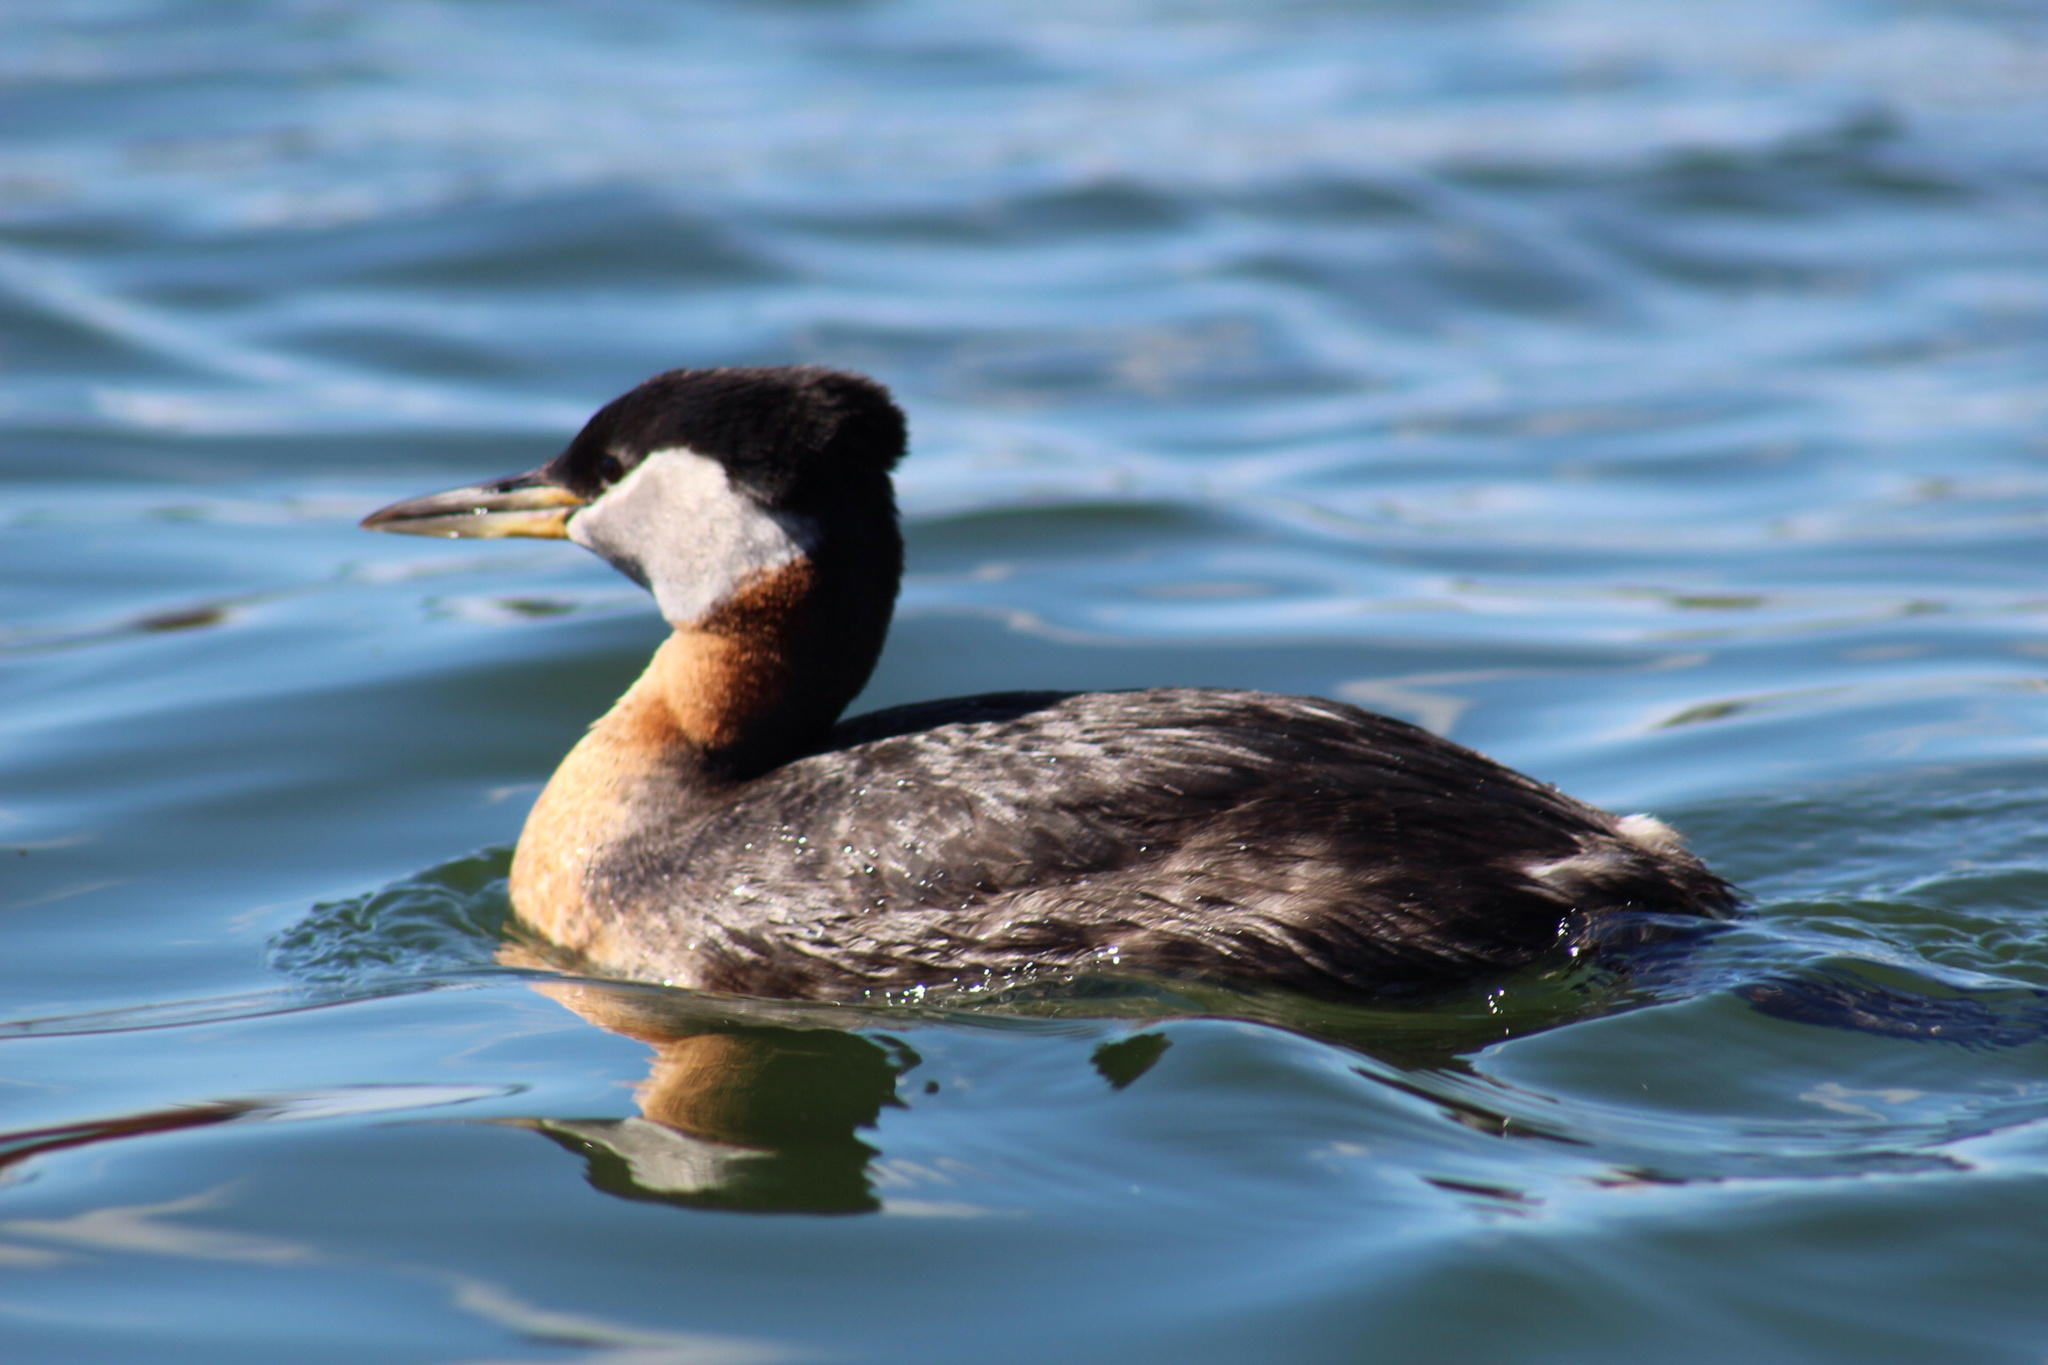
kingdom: Animalia
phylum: Chordata
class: Aves
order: Podicipediformes
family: Podicipedidae
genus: Podiceps
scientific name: Podiceps grisegena
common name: Red-necked grebe
